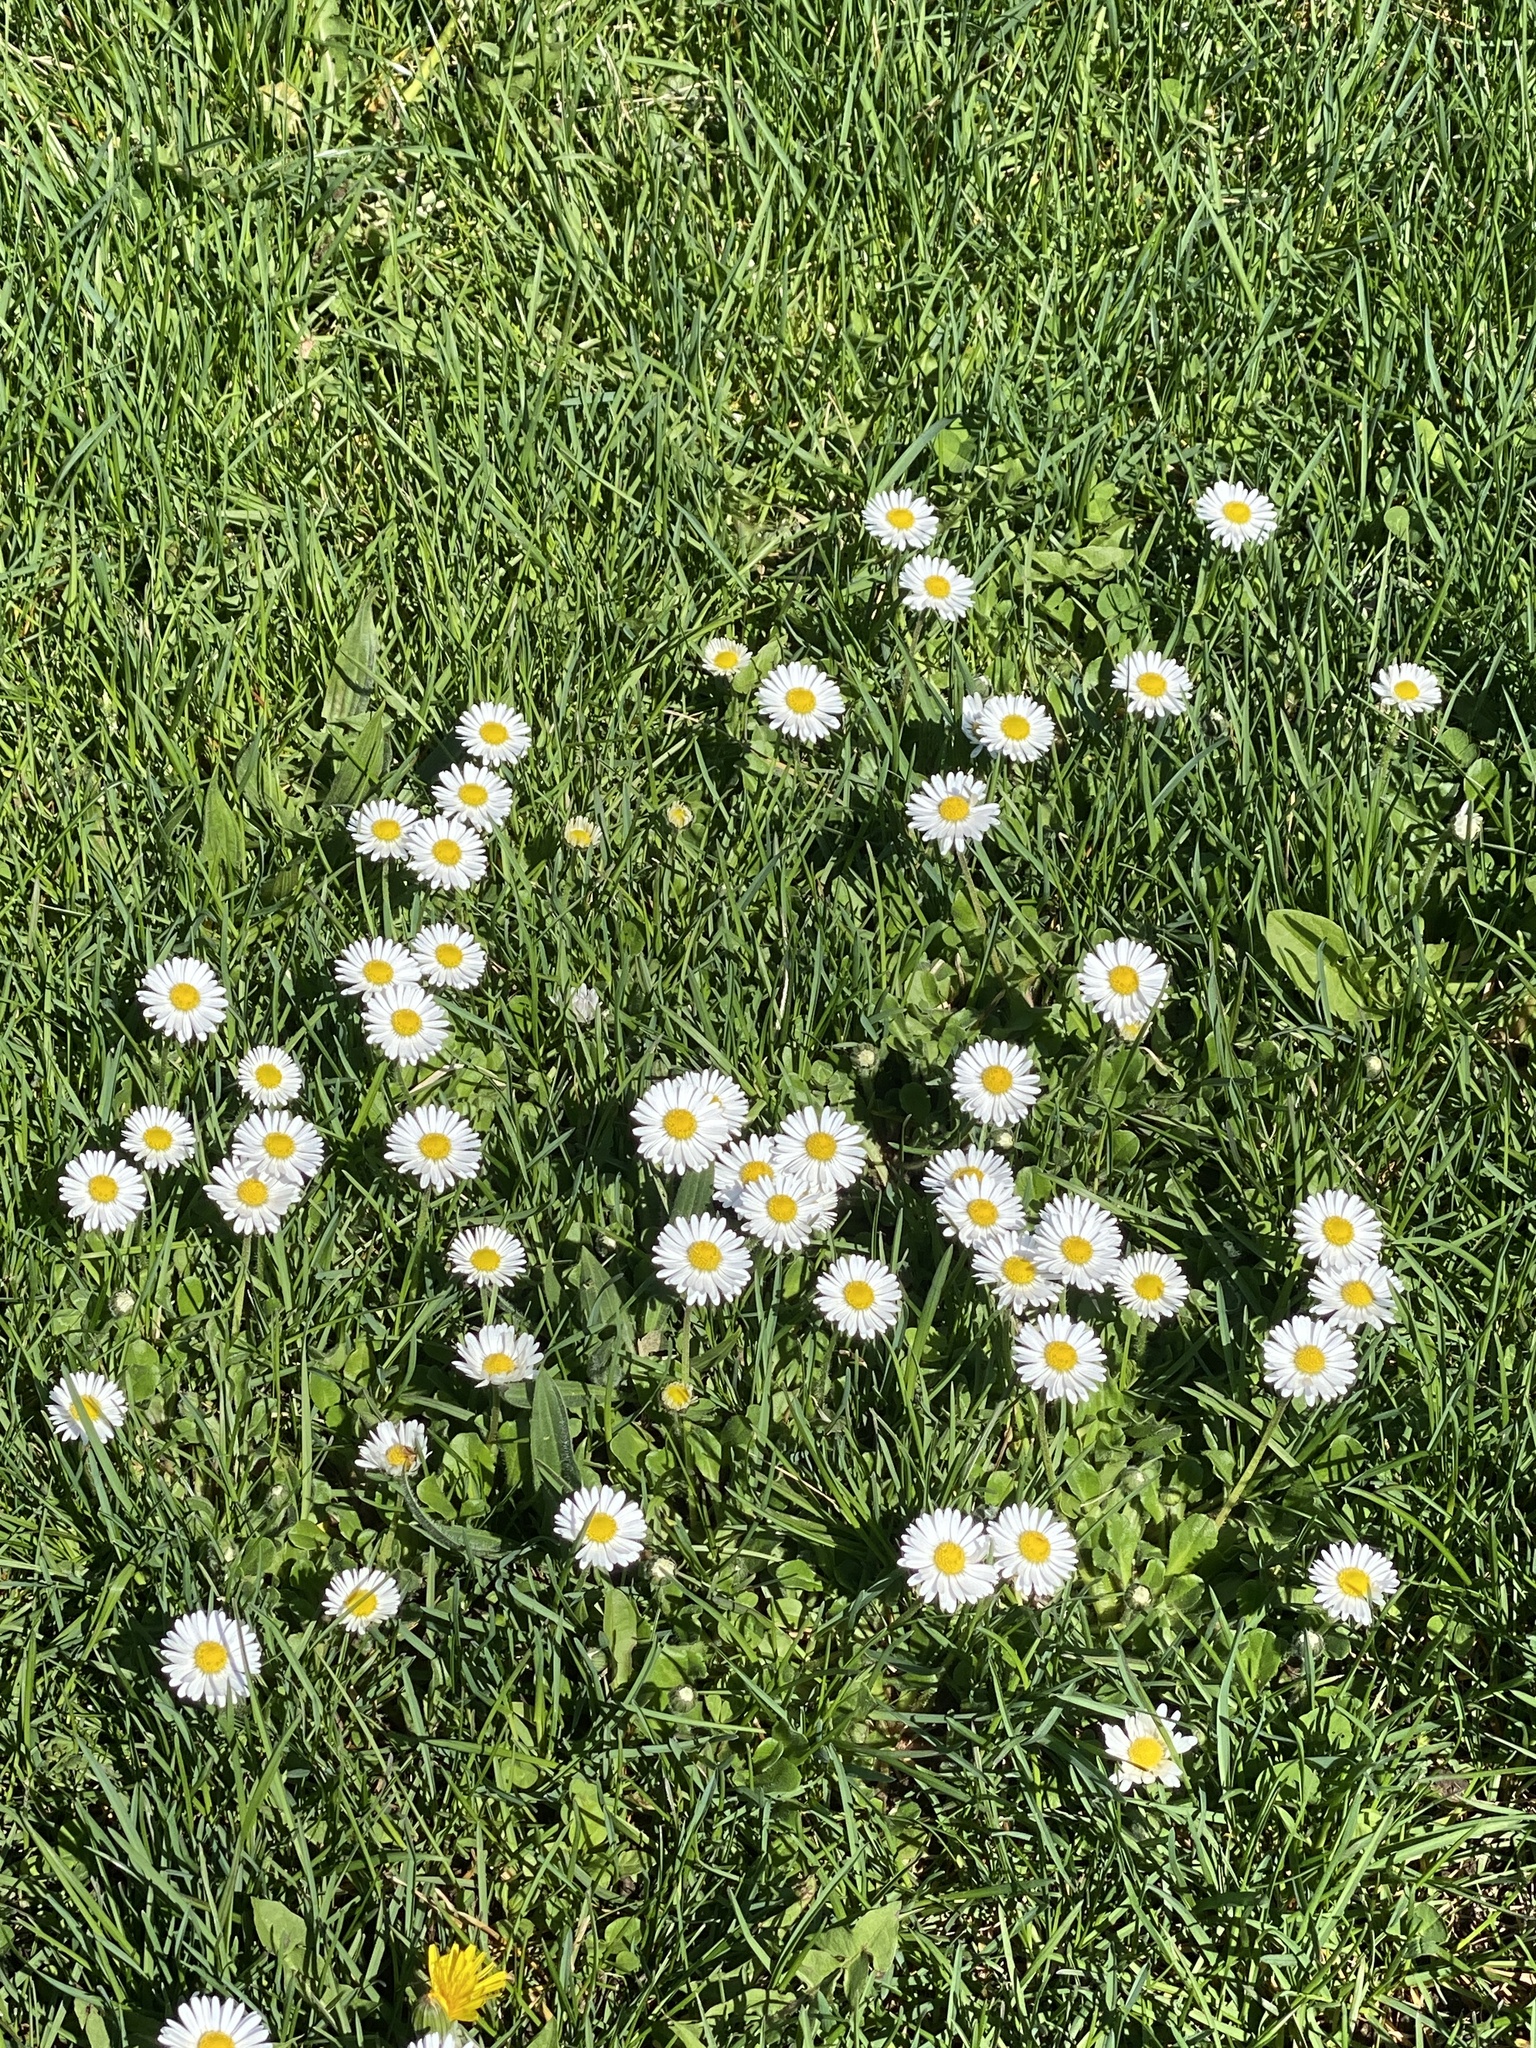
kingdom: Plantae
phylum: Tracheophyta
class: Magnoliopsida
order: Asterales
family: Asteraceae
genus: Bellis
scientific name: Bellis perennis
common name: Lawndaisy
